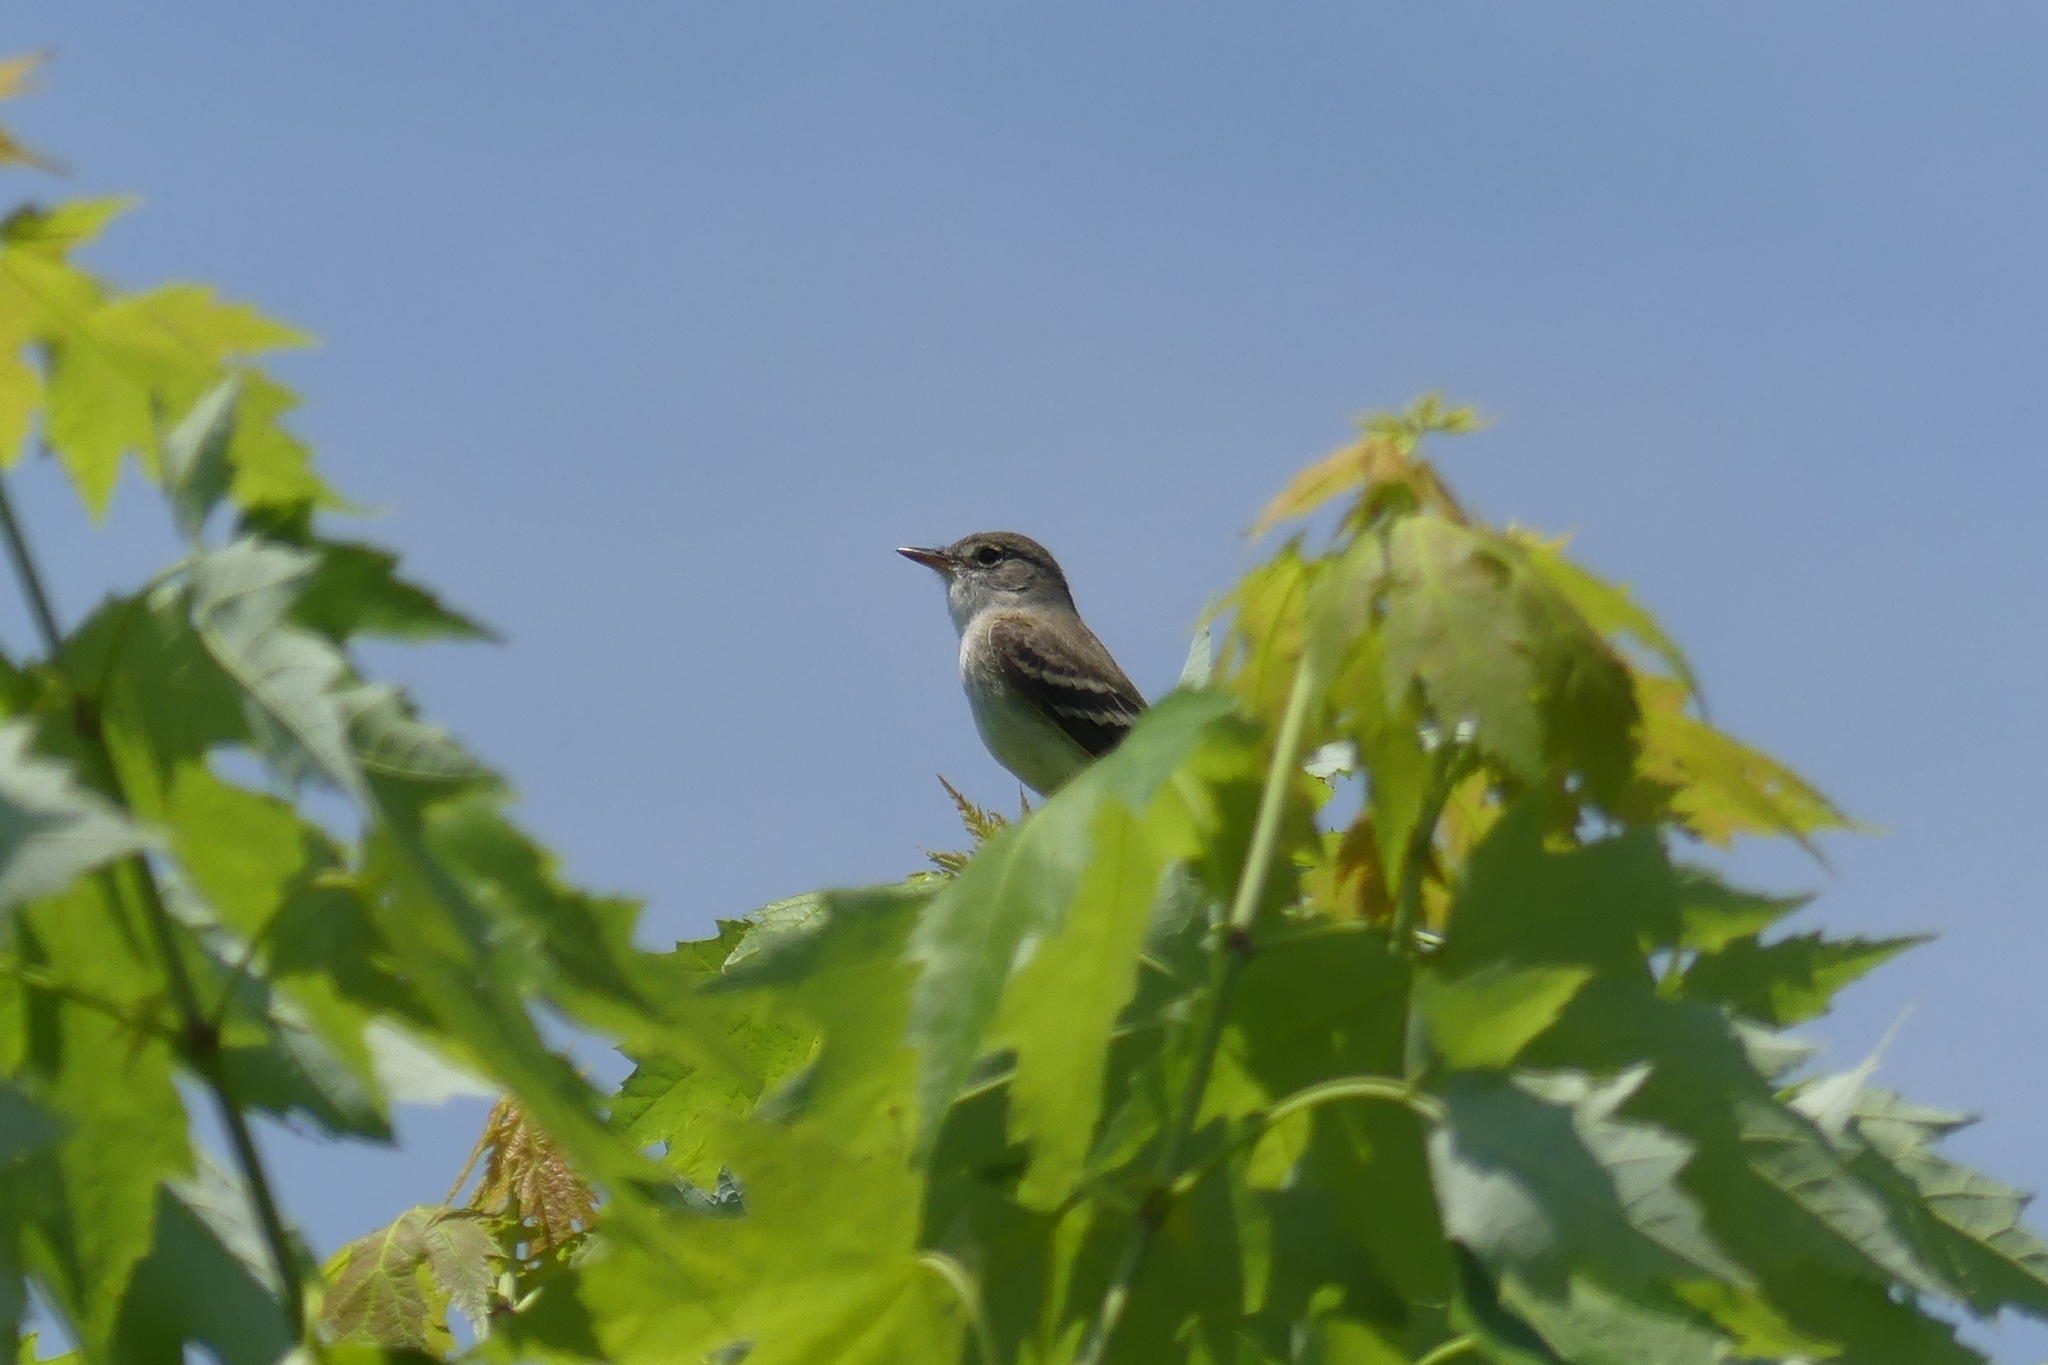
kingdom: Animalia
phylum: Chordata
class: Aves
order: Passeriformes
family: Tyrannidae
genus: Empidonax
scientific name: Empidonax traillii
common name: Willow flycatcher
